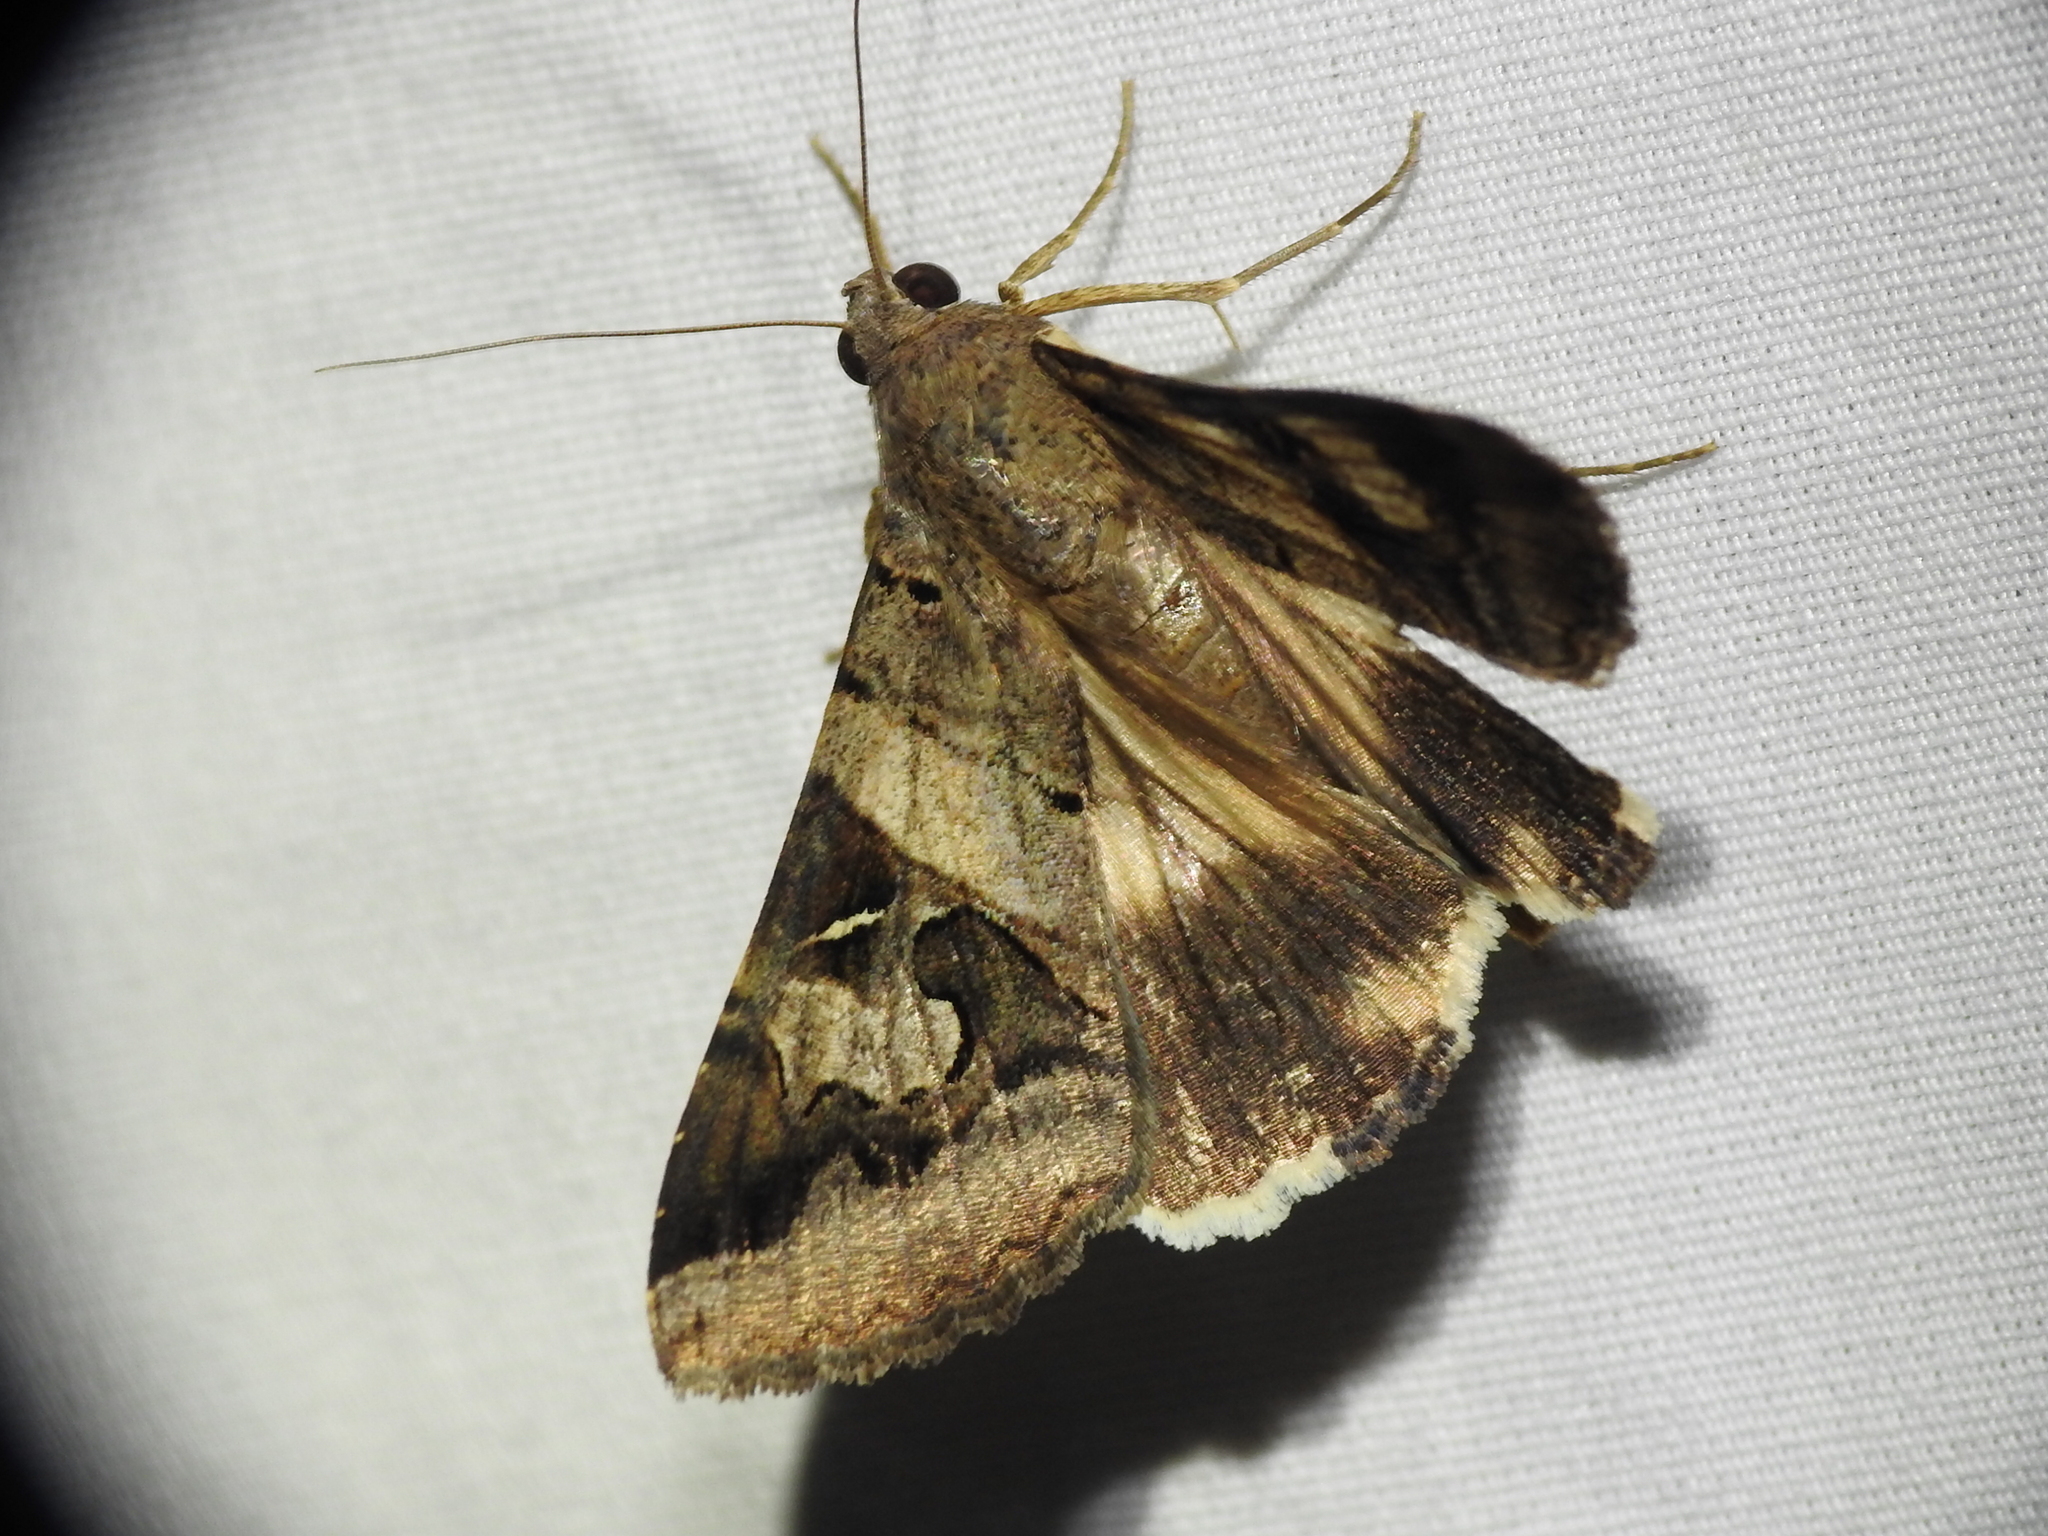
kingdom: Animalia
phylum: Arthropoda
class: Insecta
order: Lepidoptera
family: Erebidae
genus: Melipotis
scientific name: Melipotis indomita
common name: Moth
